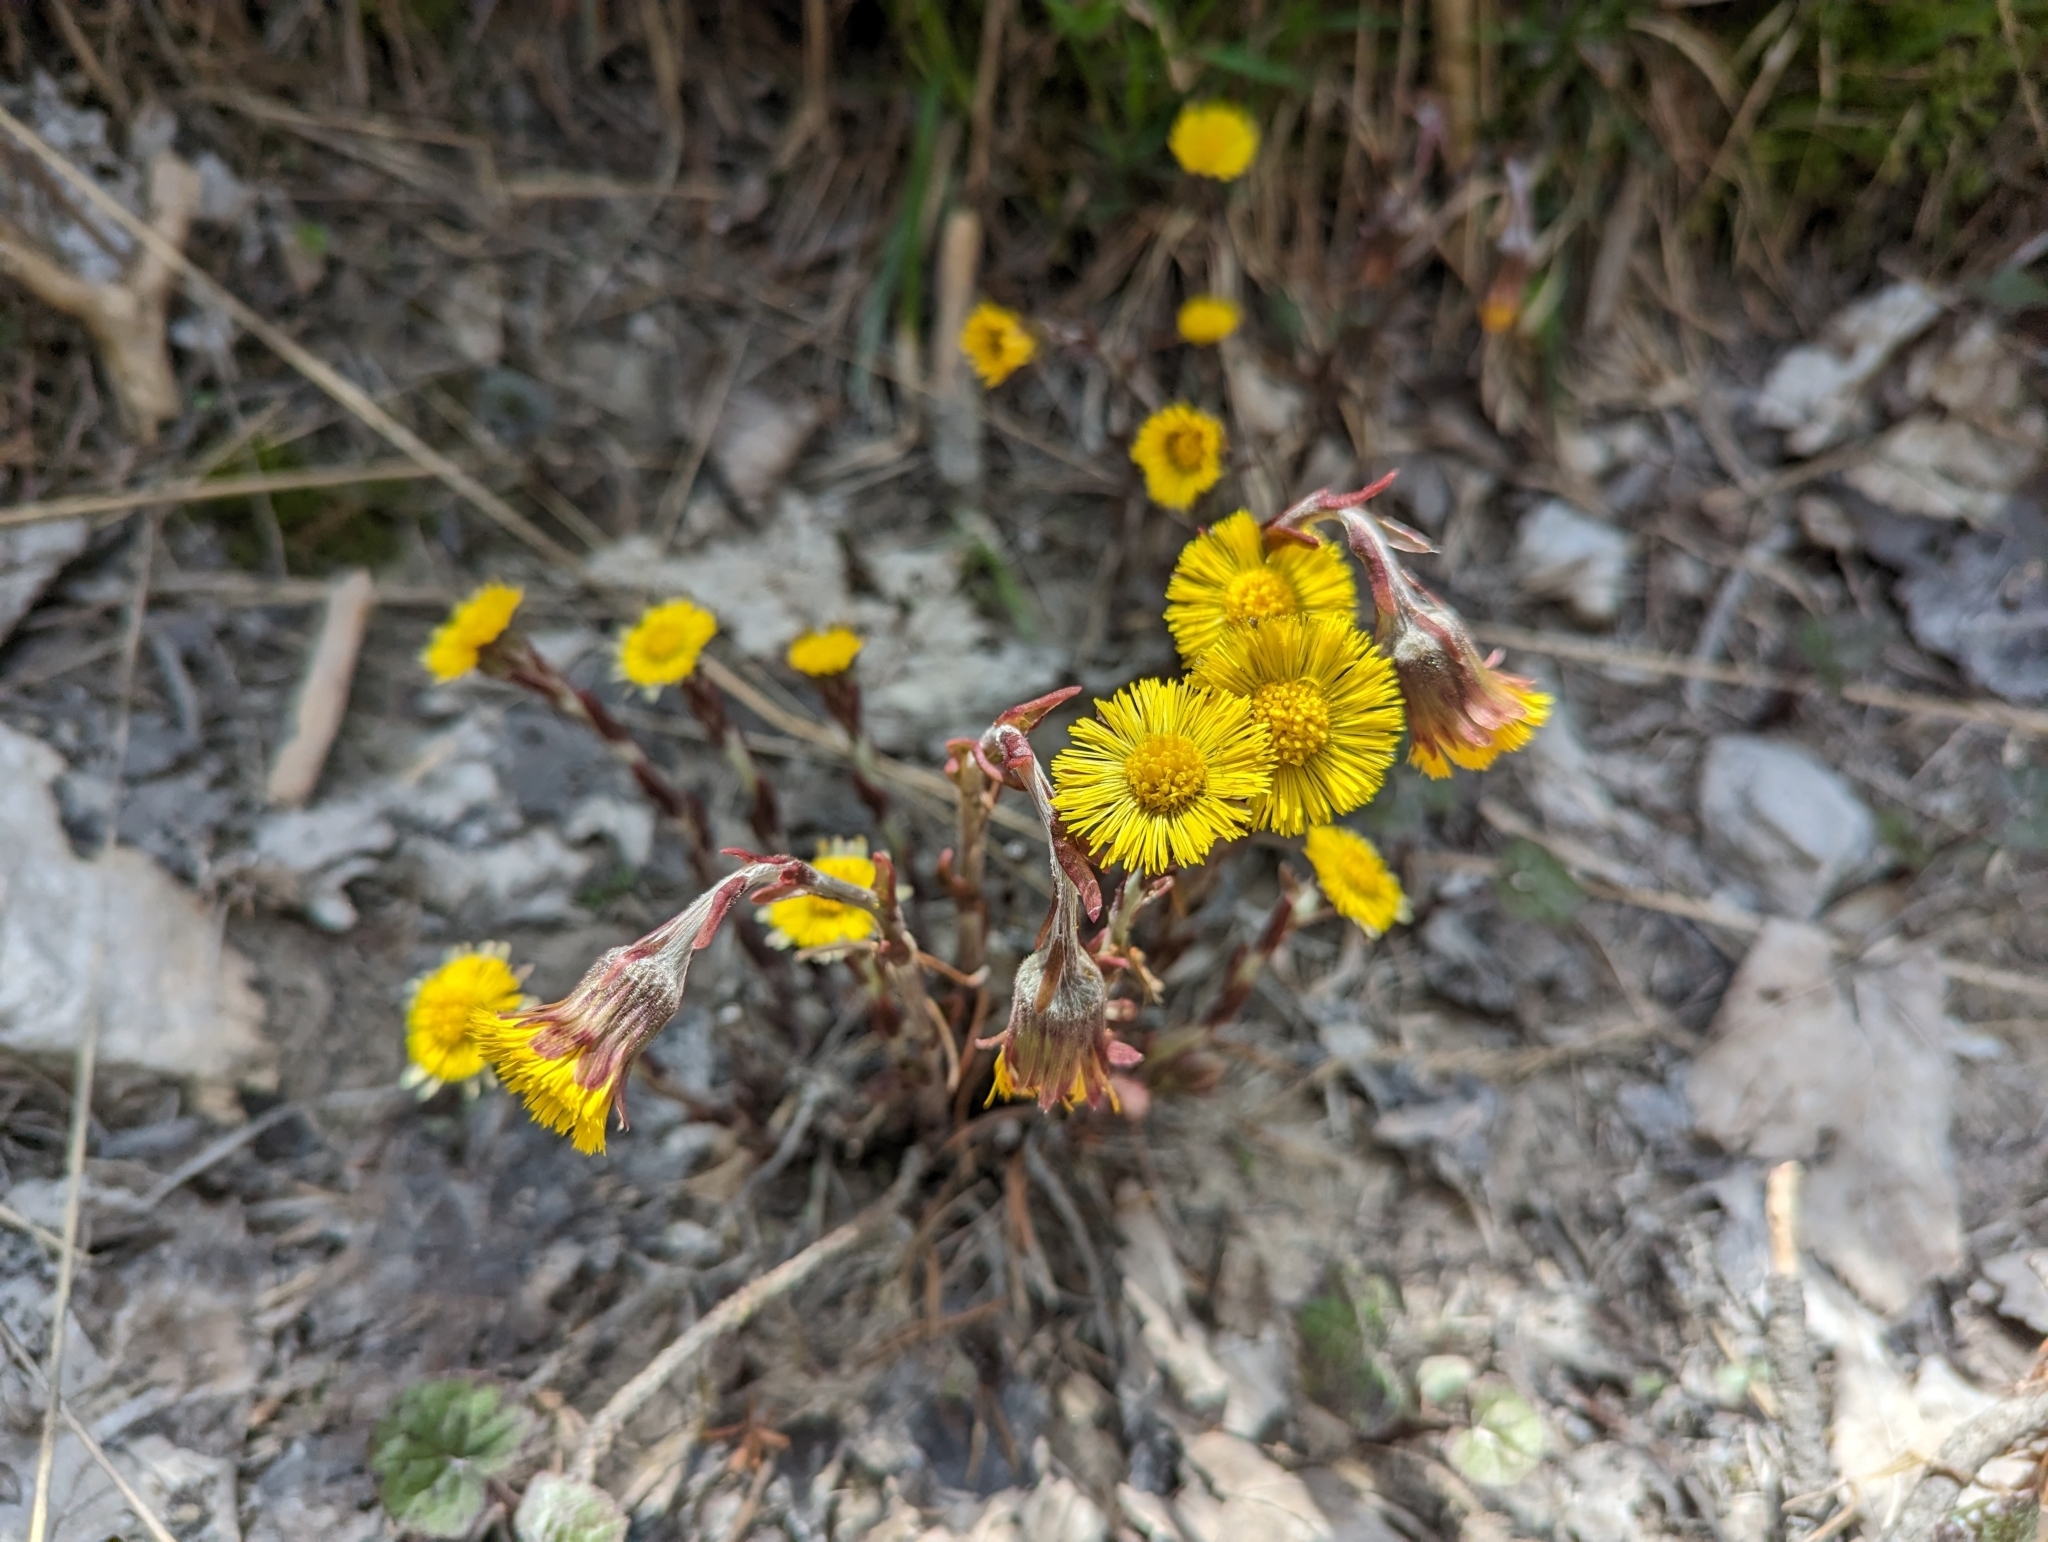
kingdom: Plantae
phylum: Tracheophyta
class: Magnoliopsida
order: Asterales
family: Asteraceae
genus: Tussilago
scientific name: Tussilago farfara
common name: Coltsfoot
